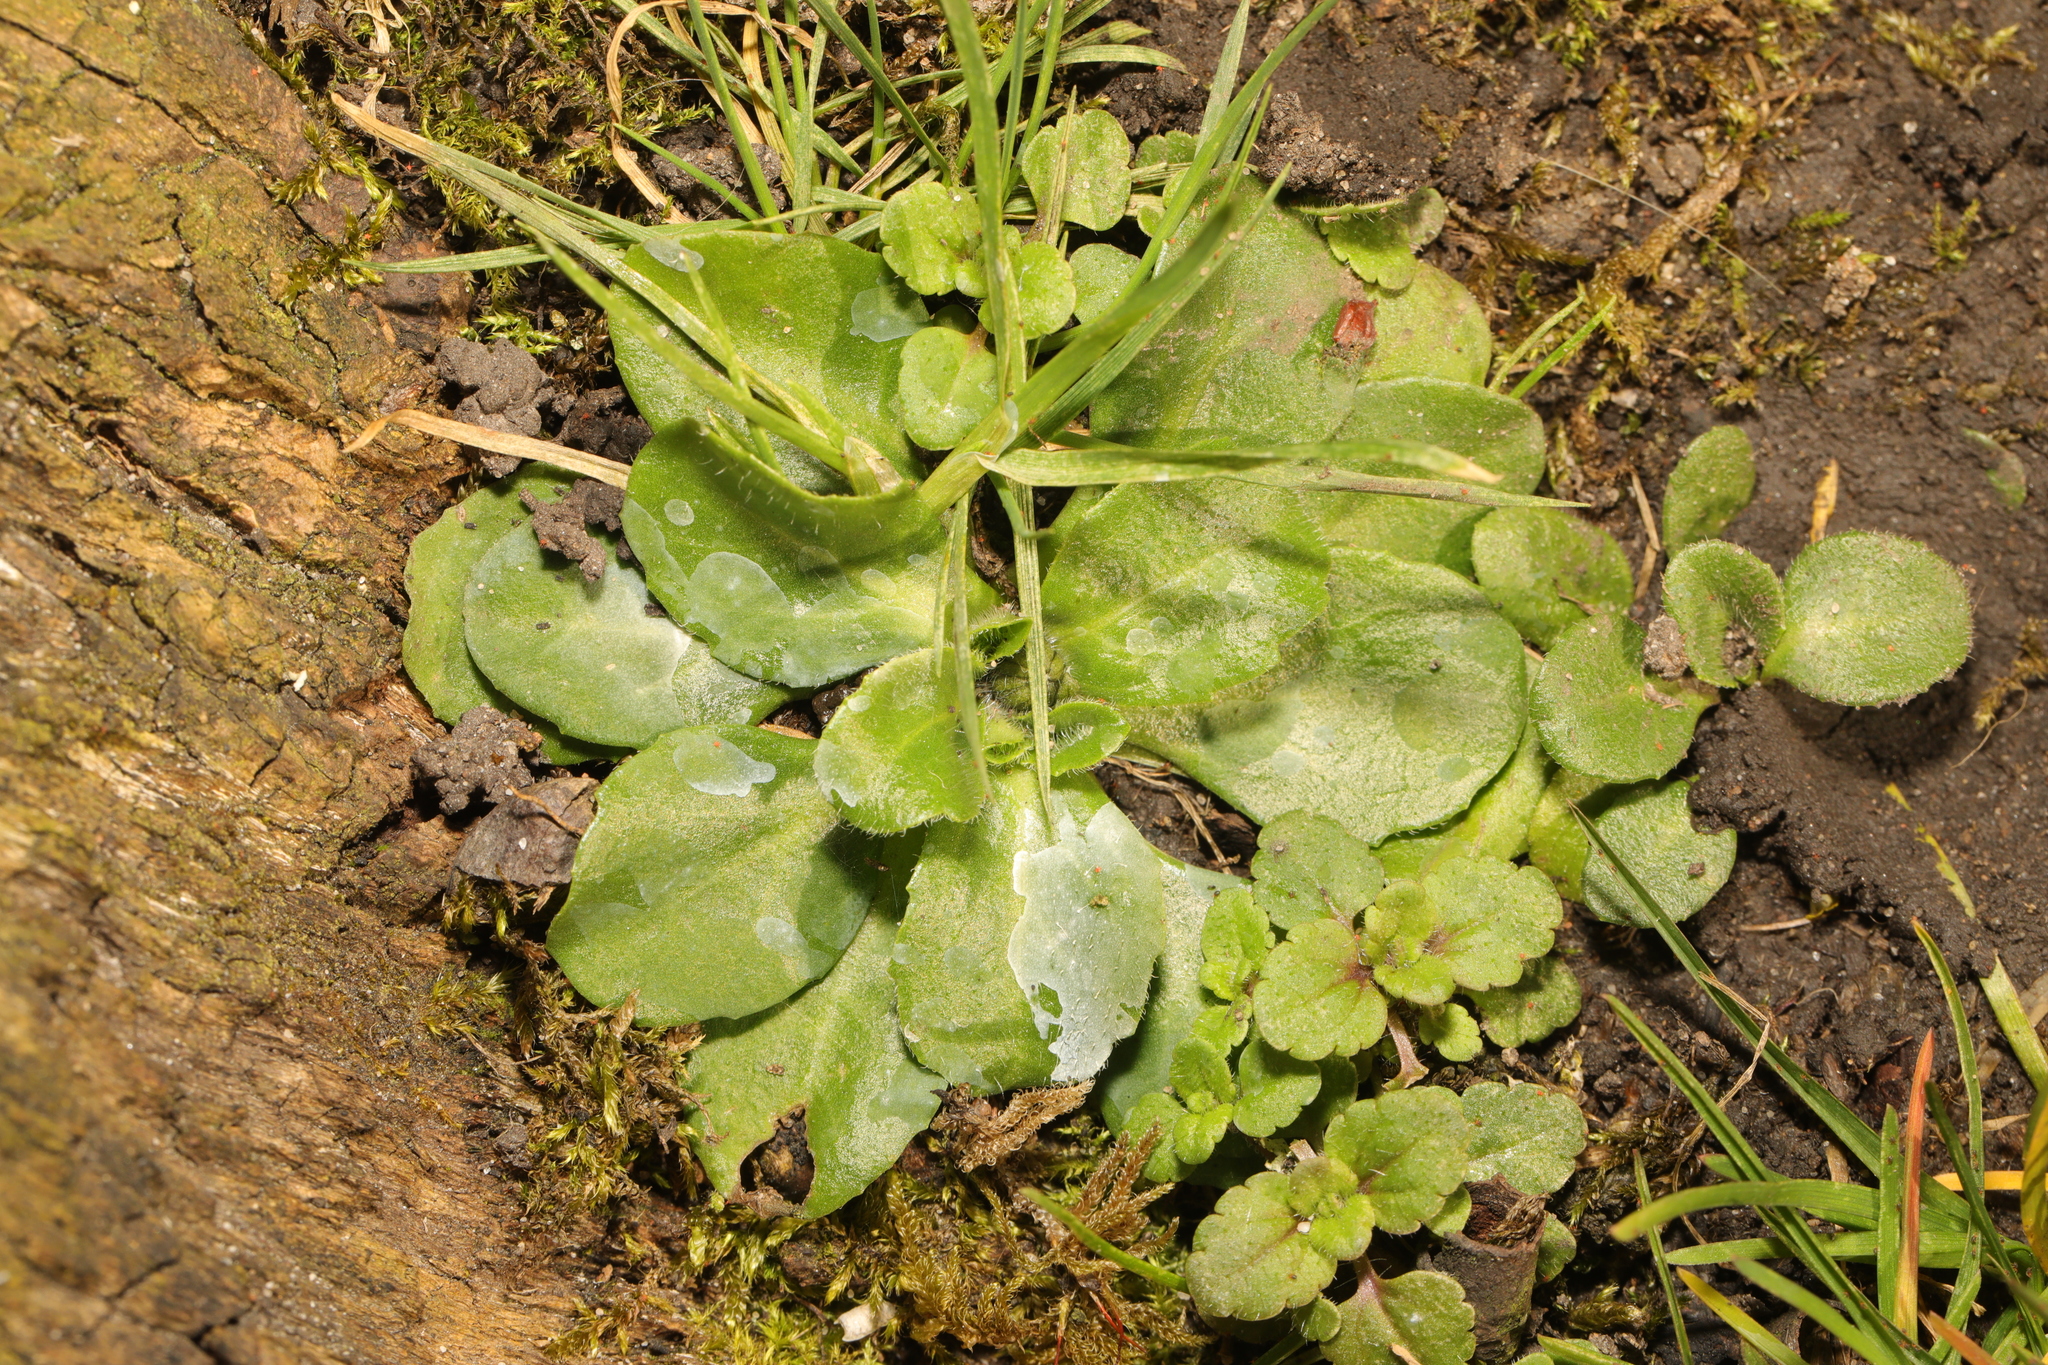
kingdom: Plantae
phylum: Tracheophyta
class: Magnoliopsida
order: Asterales
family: Asteraceae
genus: Bellis
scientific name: Bellis perennis
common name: Lawndaisy
